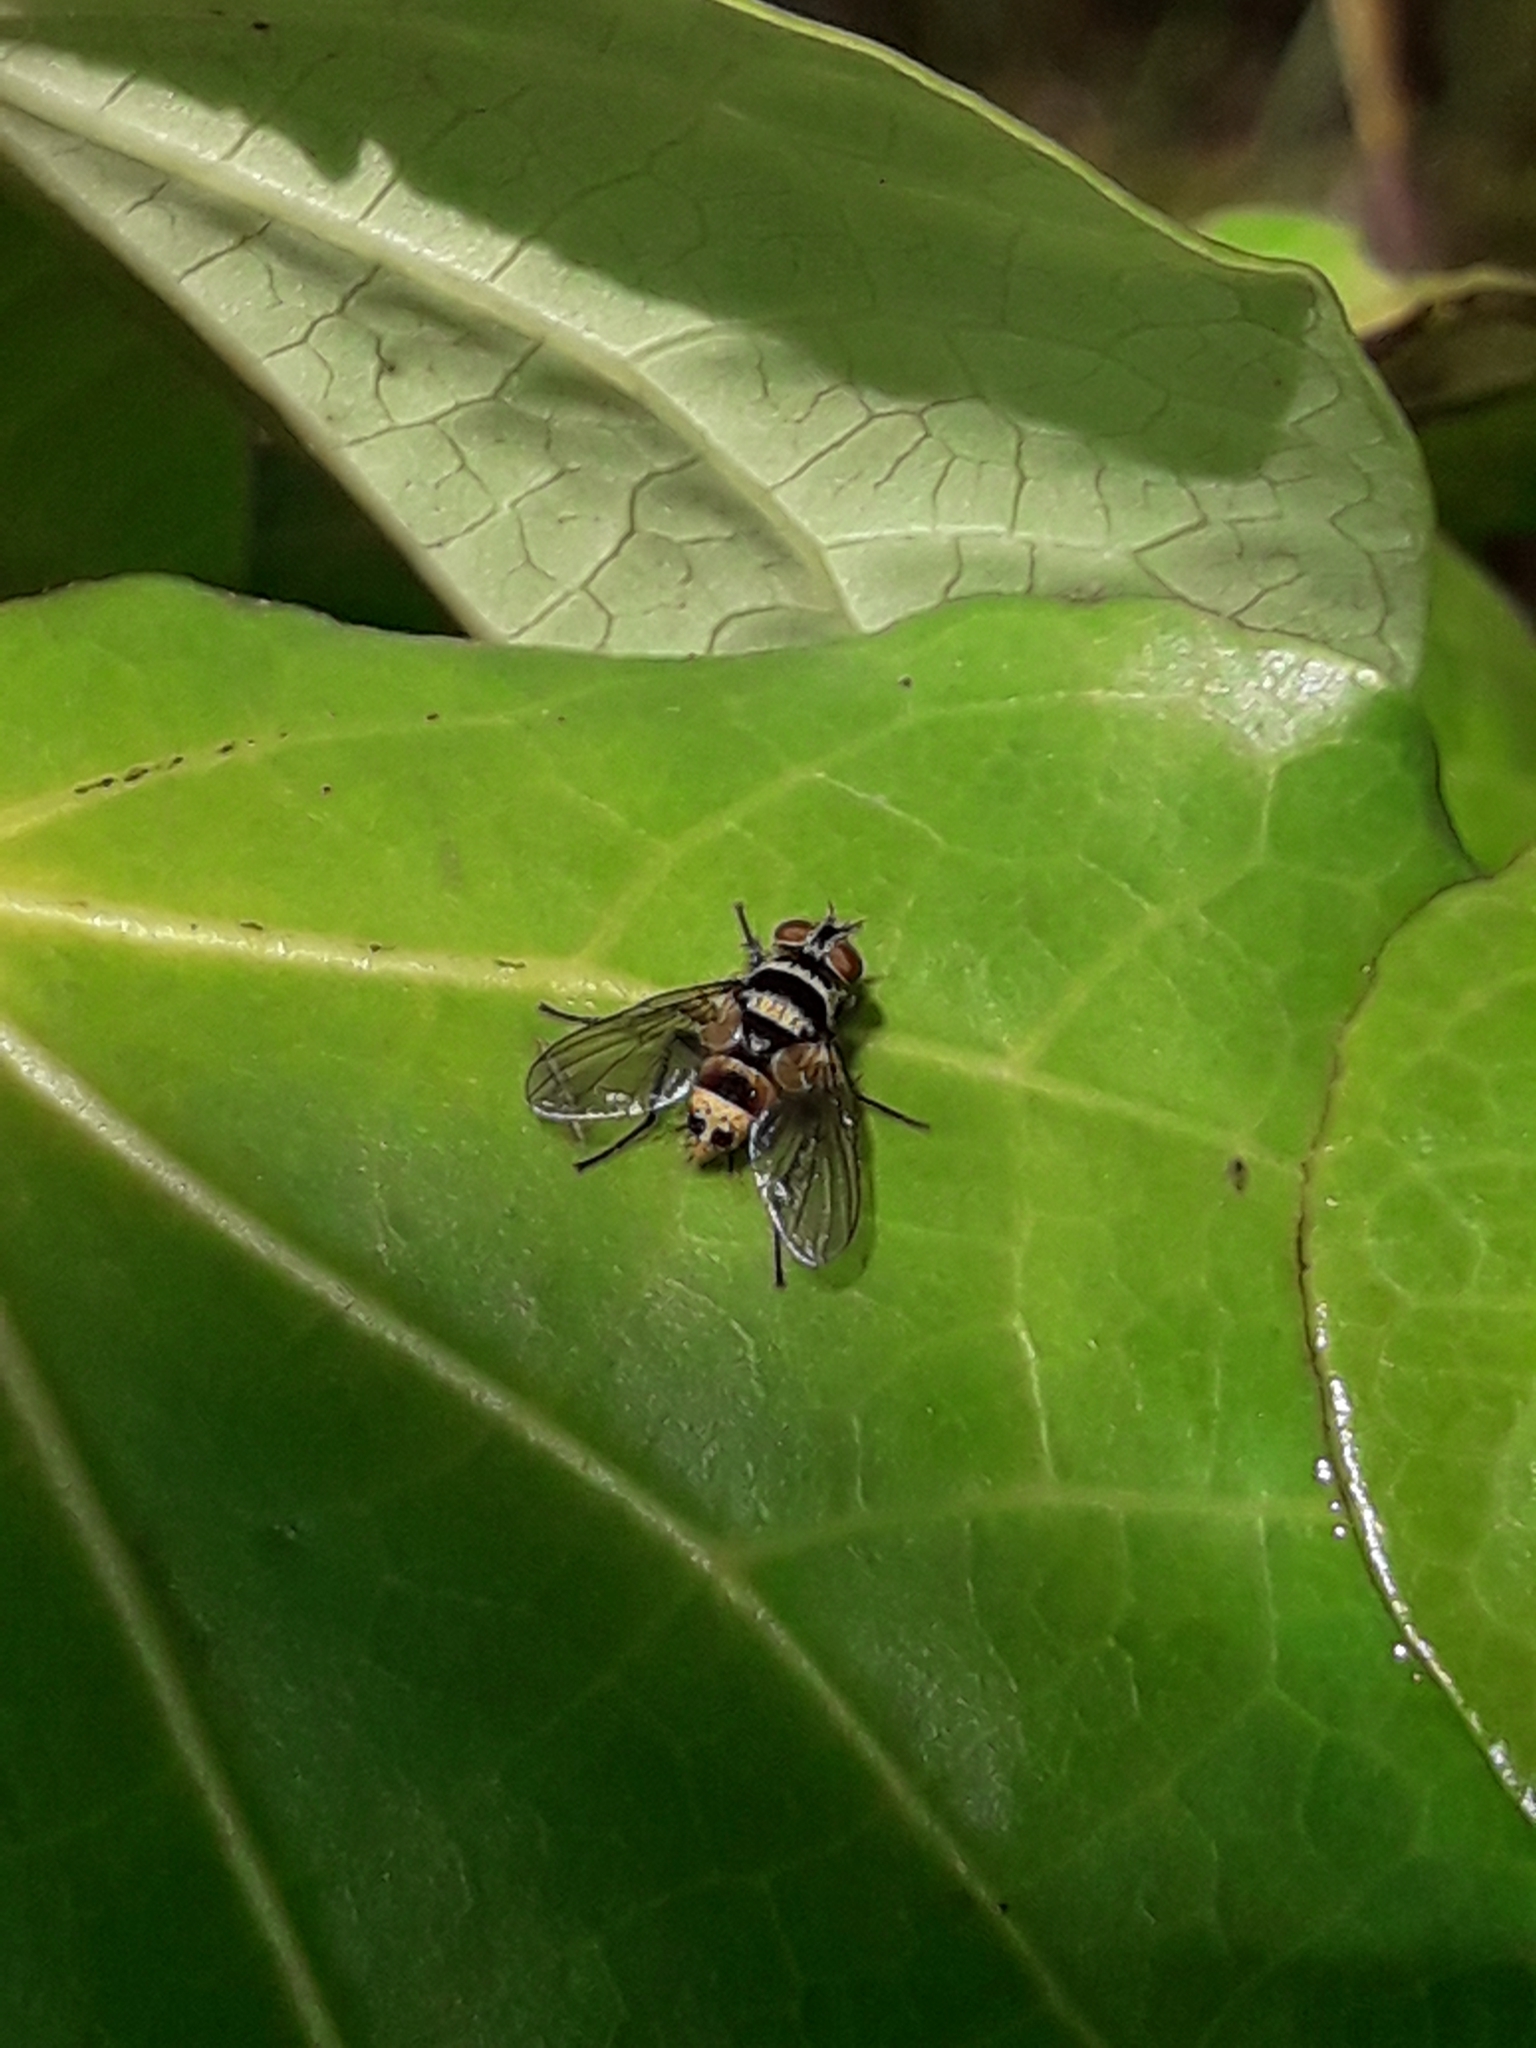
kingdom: Animalia
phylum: Arthropoda
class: Insecta
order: Diptera
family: Tachinidae
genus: Trigonospila
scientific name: Trigonospila brevifacies
